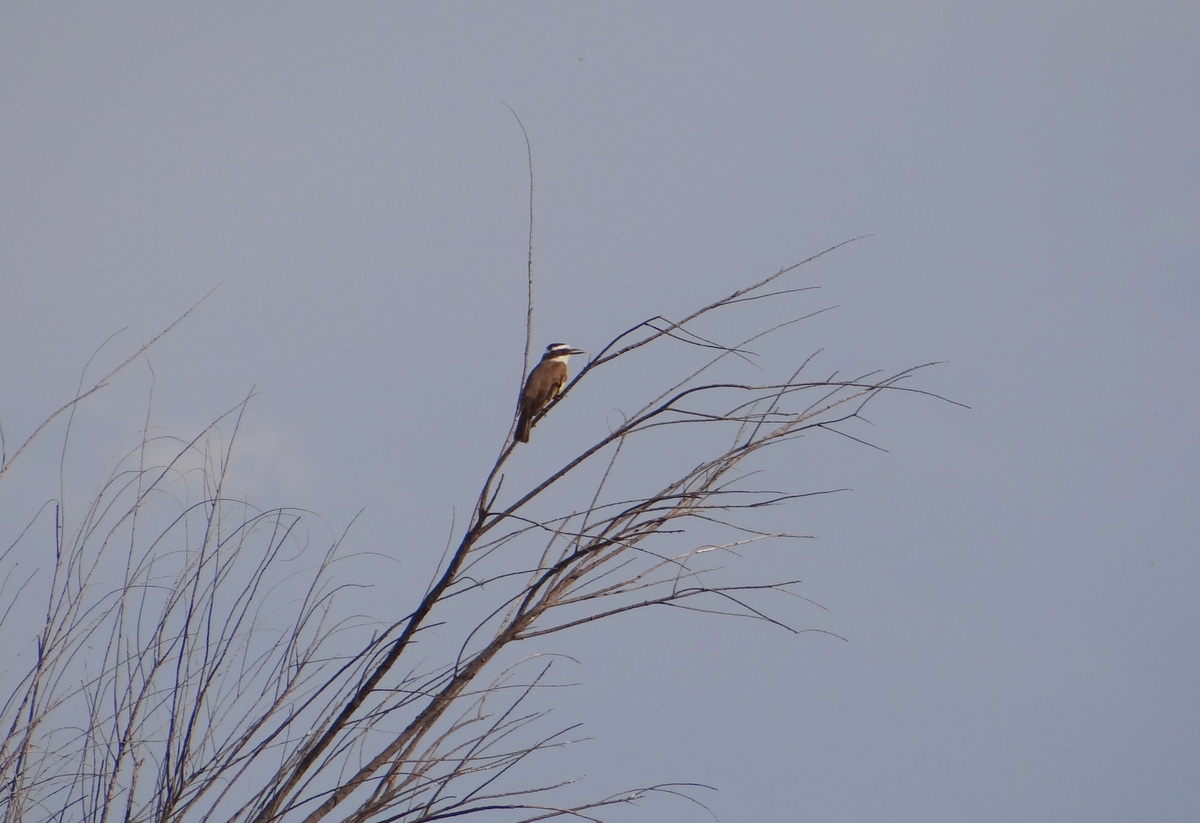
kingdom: Animalia
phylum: Chordata
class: Aves
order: Passeriformes
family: Tyrannidae
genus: Pitangus
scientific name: Pitangus sulphuratus
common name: Great kiskadee
